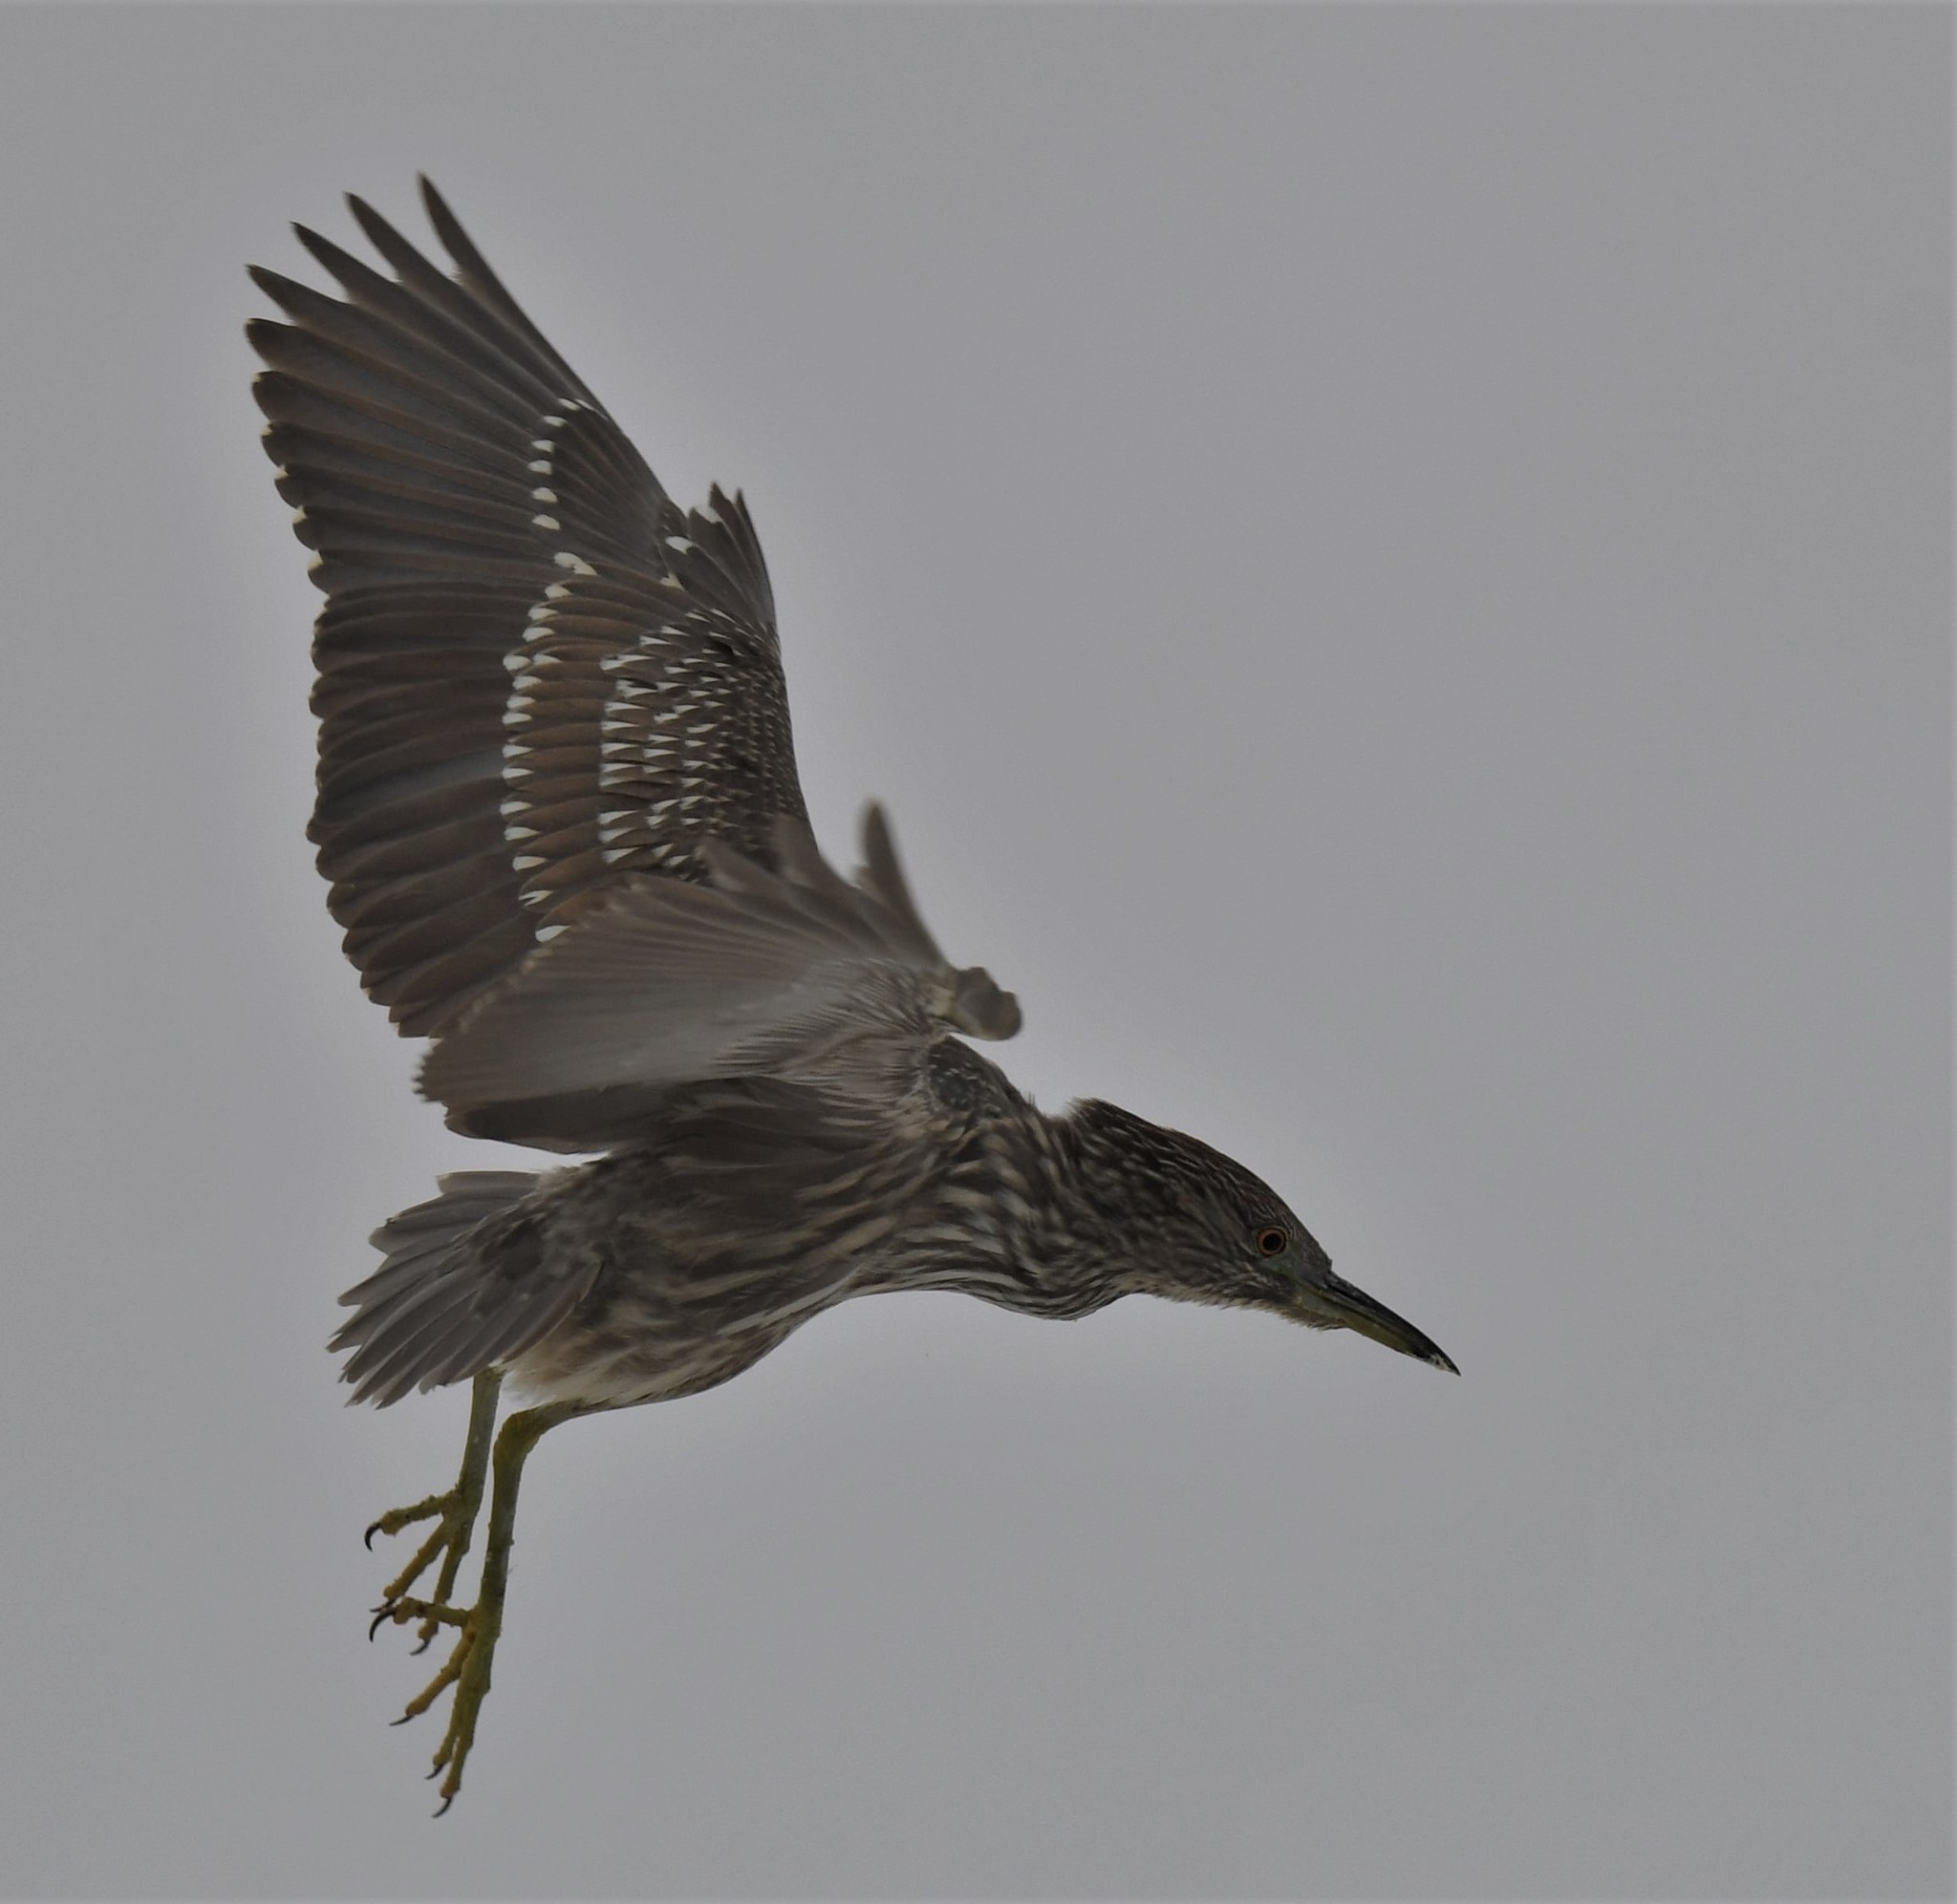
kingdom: Animalia
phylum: Chordata
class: Aves
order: Pelecaniformes
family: Ardeidae
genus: Nycticorax
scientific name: Nycticorax nycticorax
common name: Black-crowned night heron
